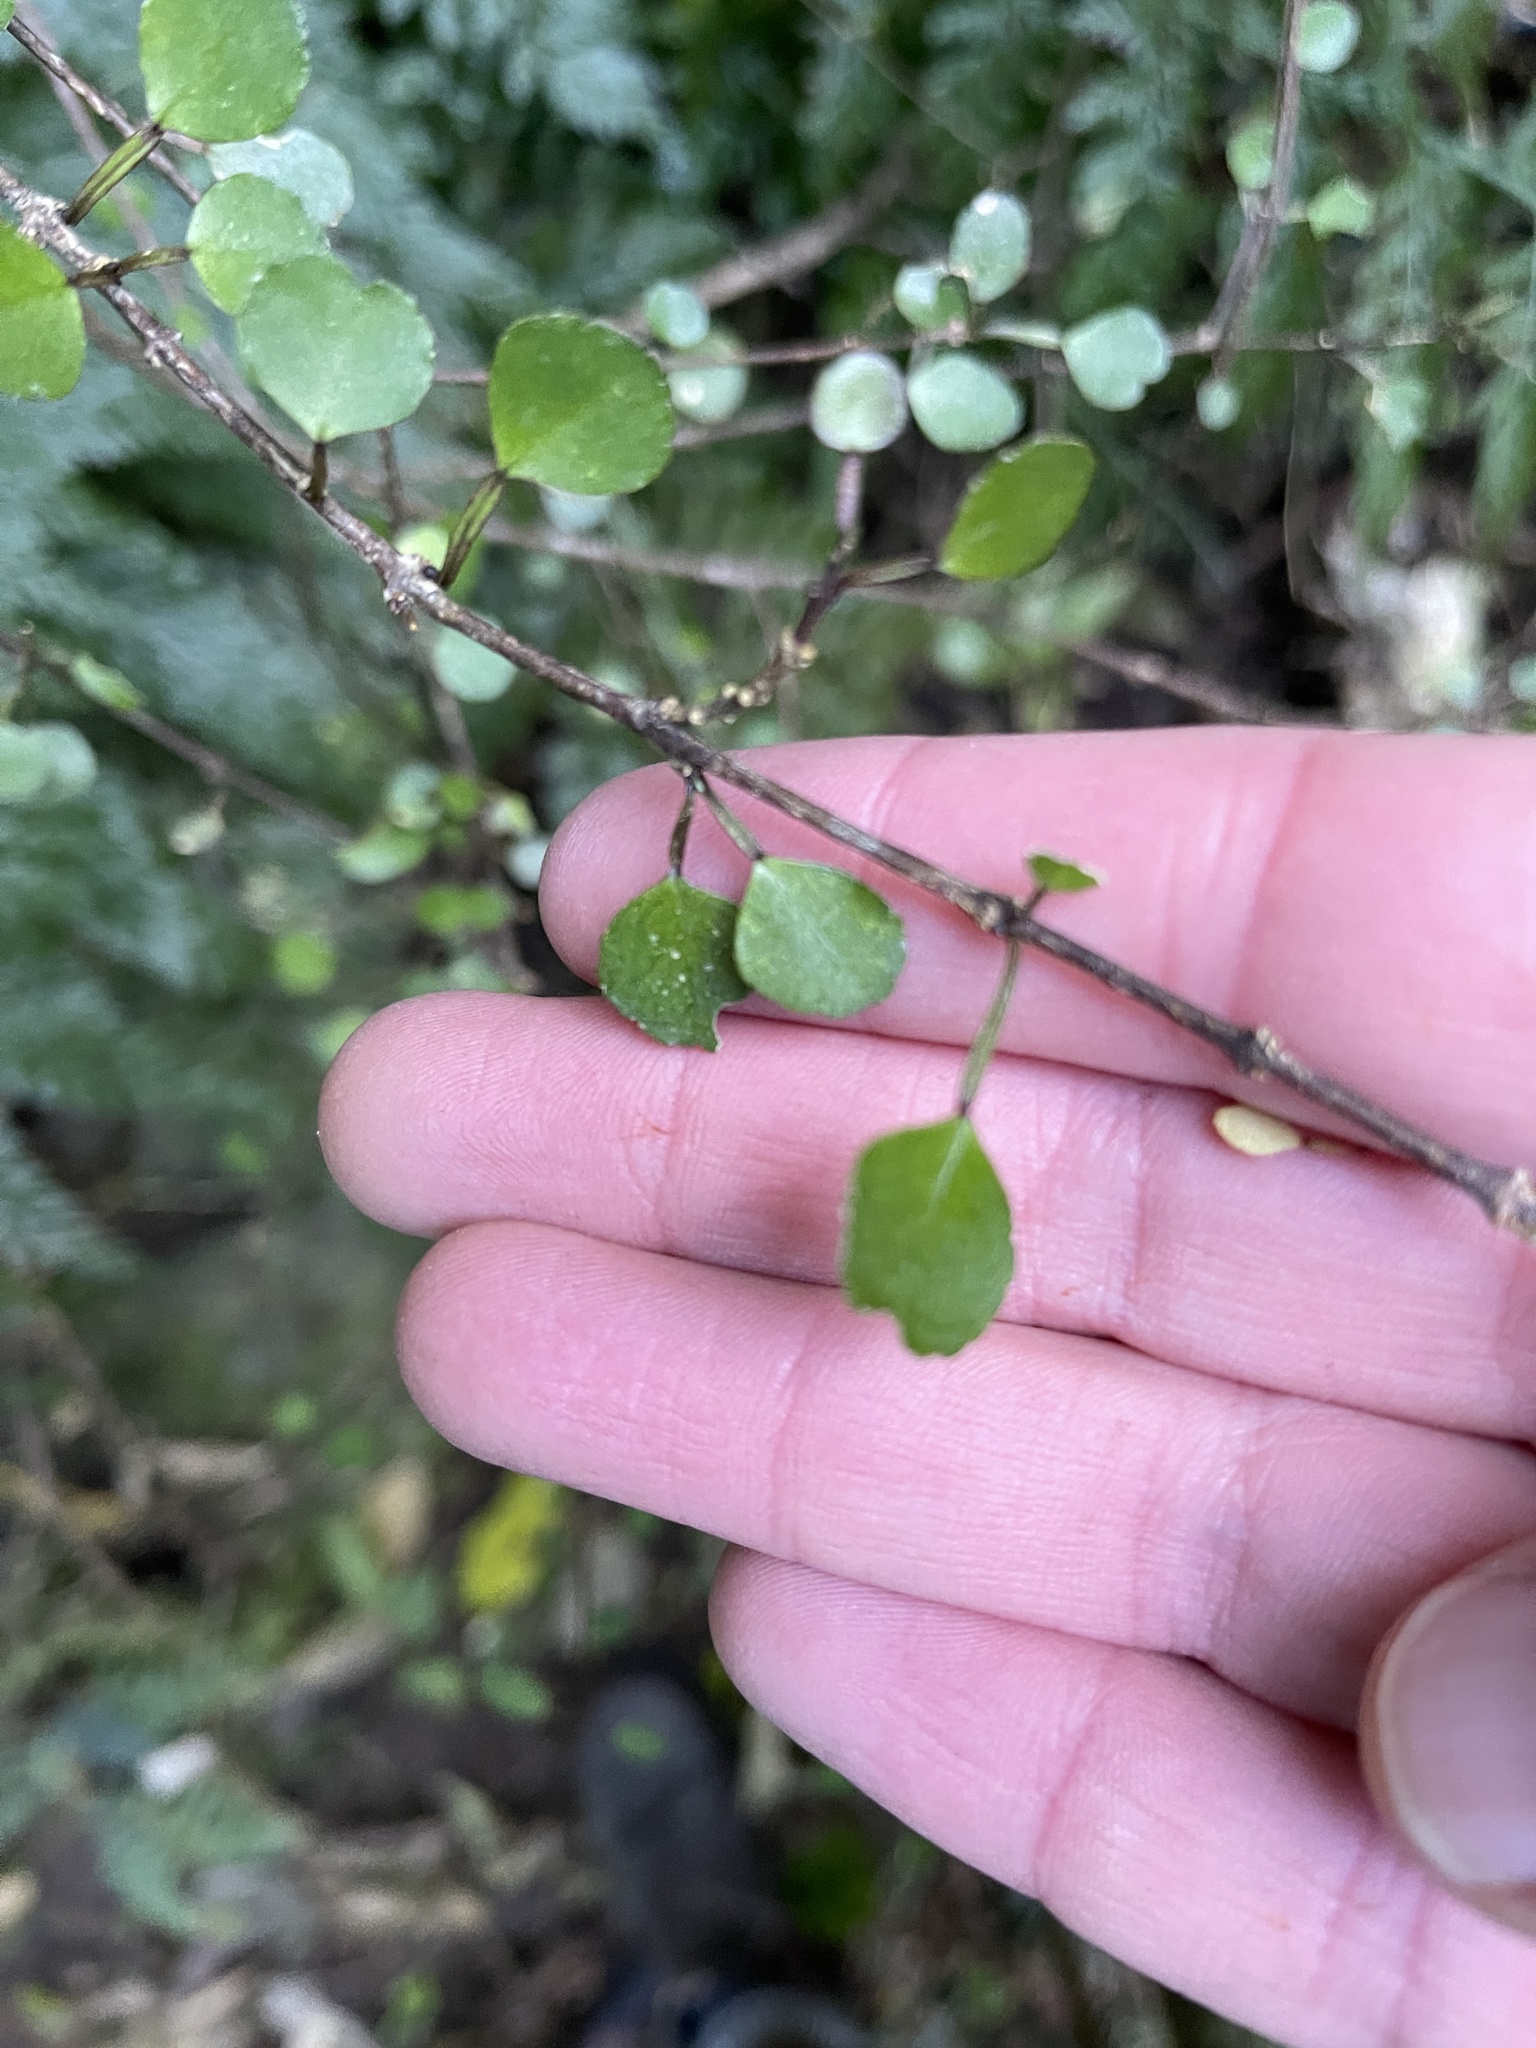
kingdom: Plantae
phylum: Tracheophyta
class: Magnoliopsida
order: Sapindales
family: Rutaceae
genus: Melicope
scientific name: Melicope simplex
